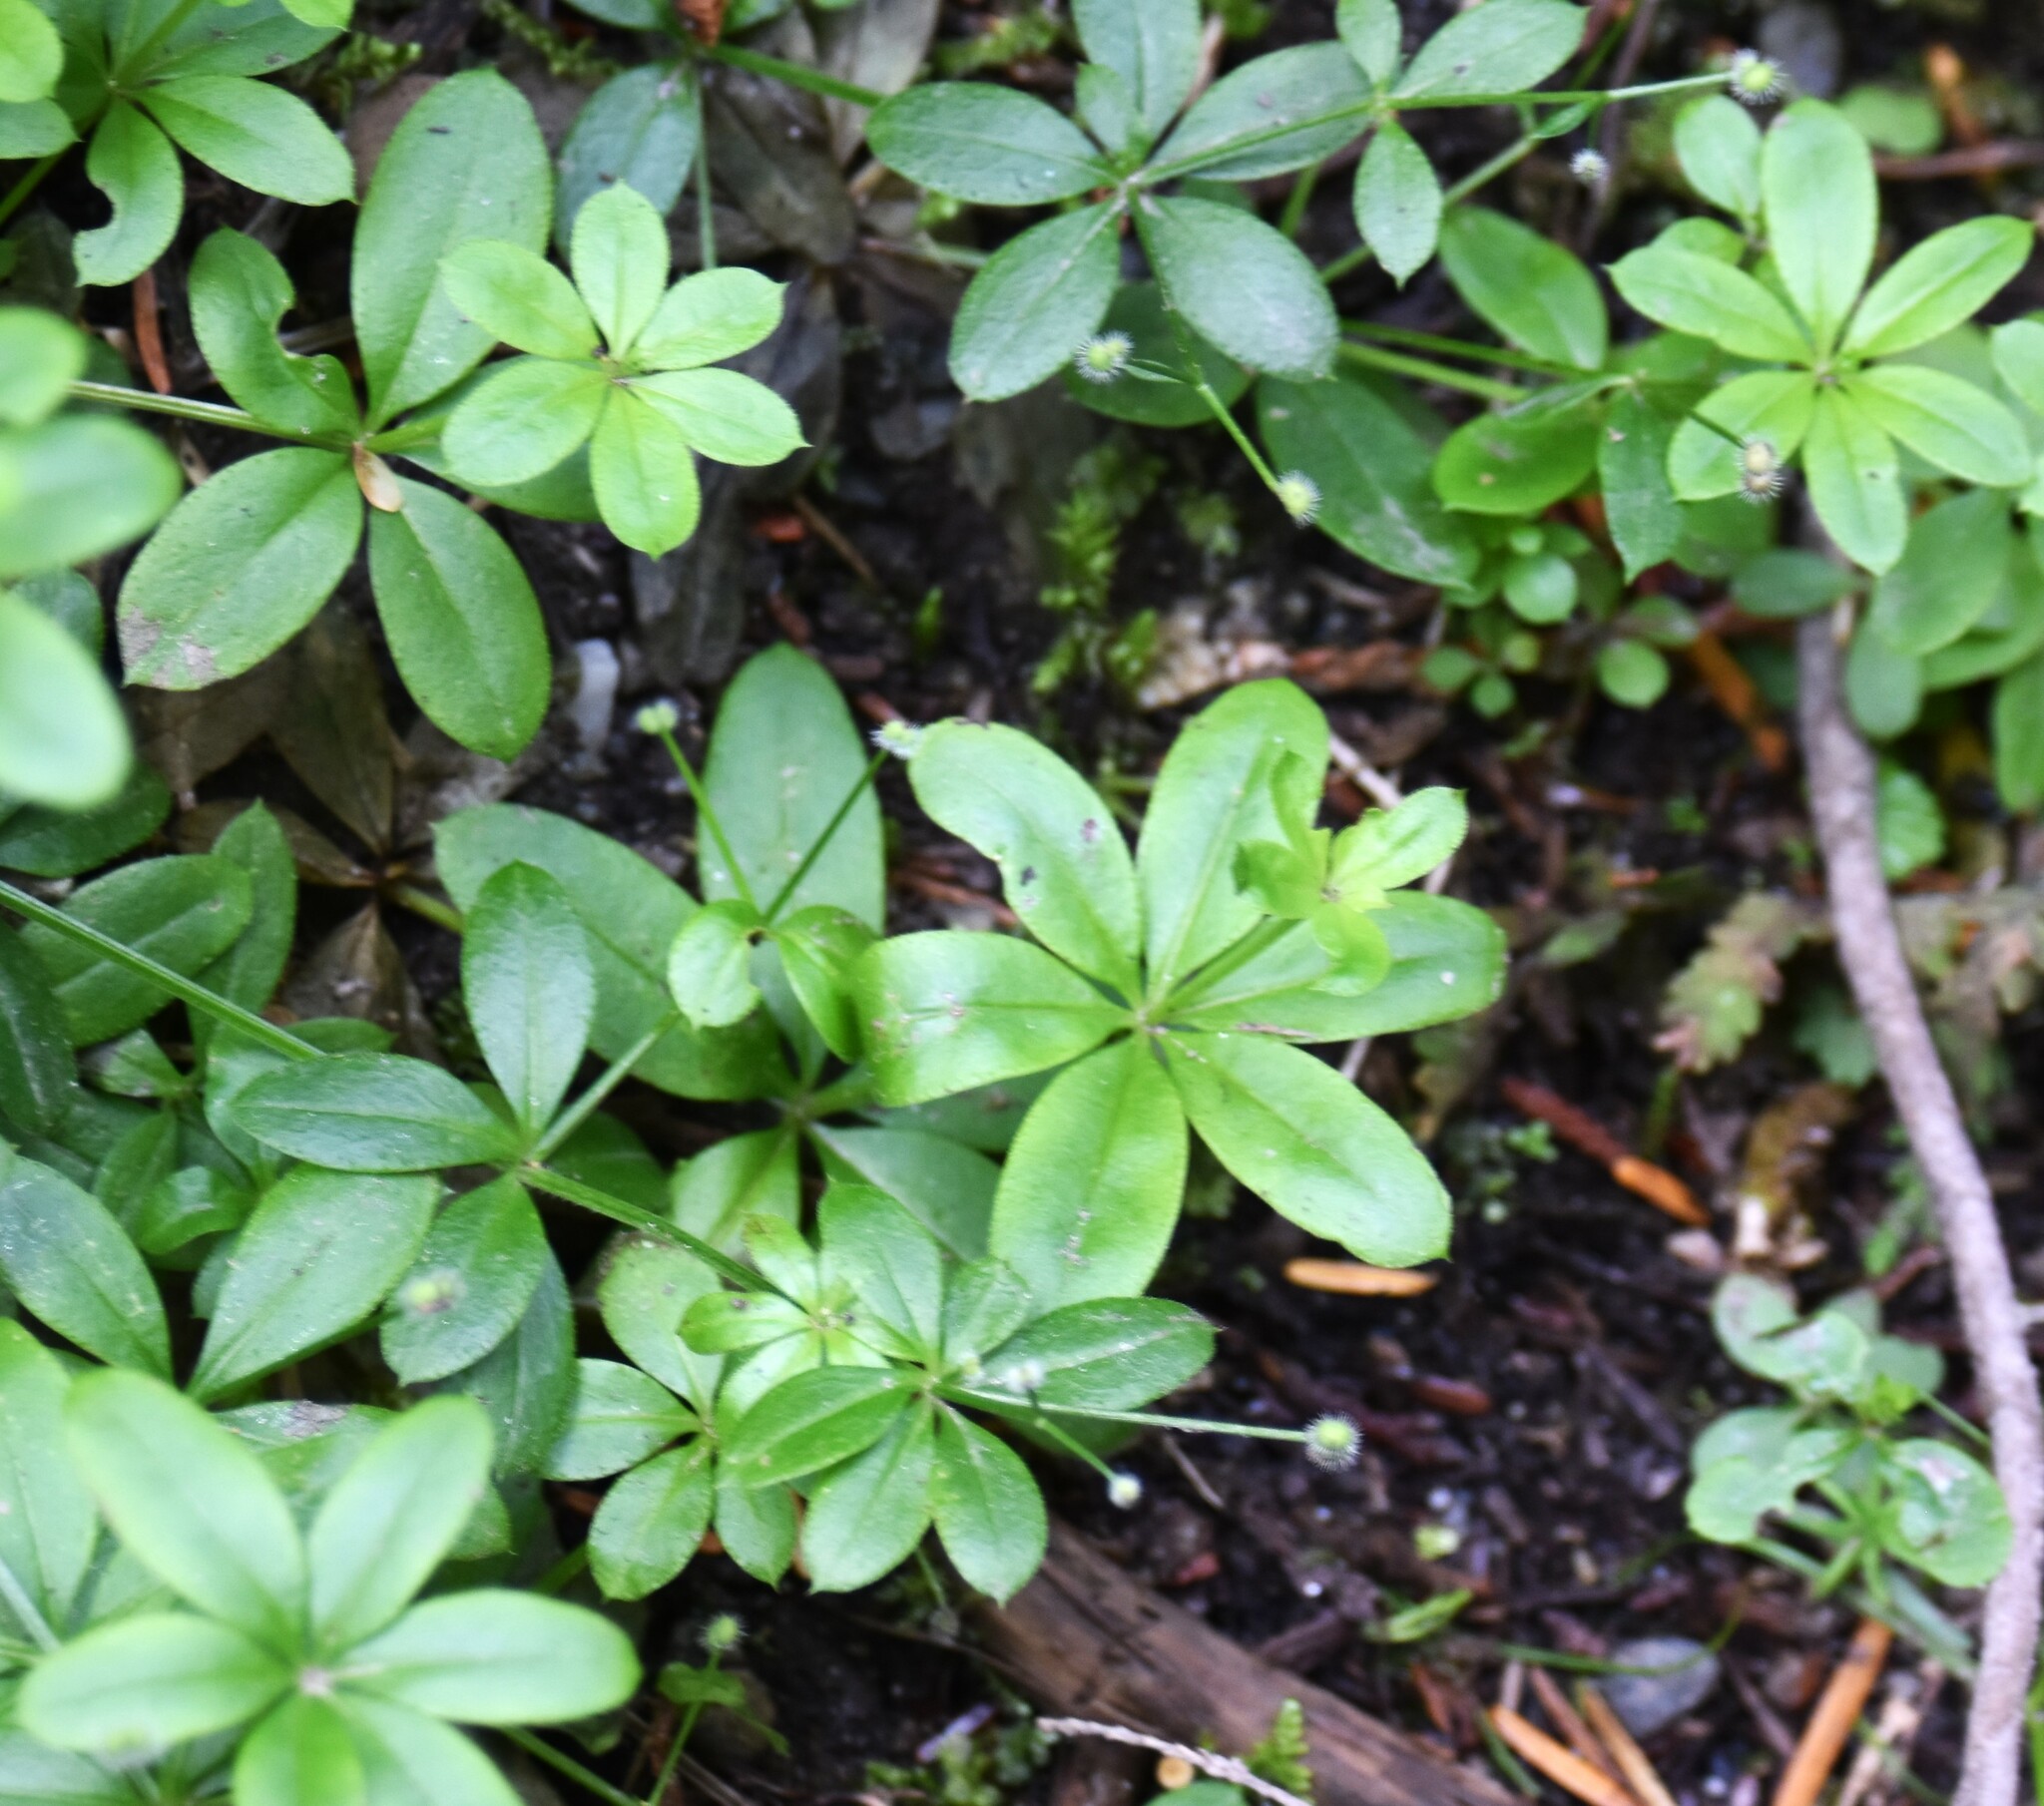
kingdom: Plantae
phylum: Tracheophyta
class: Magnoliopsida
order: Gentianales
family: Rubiaceae
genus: Galium
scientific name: Galium triflorum
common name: Fragrant bedstraw
